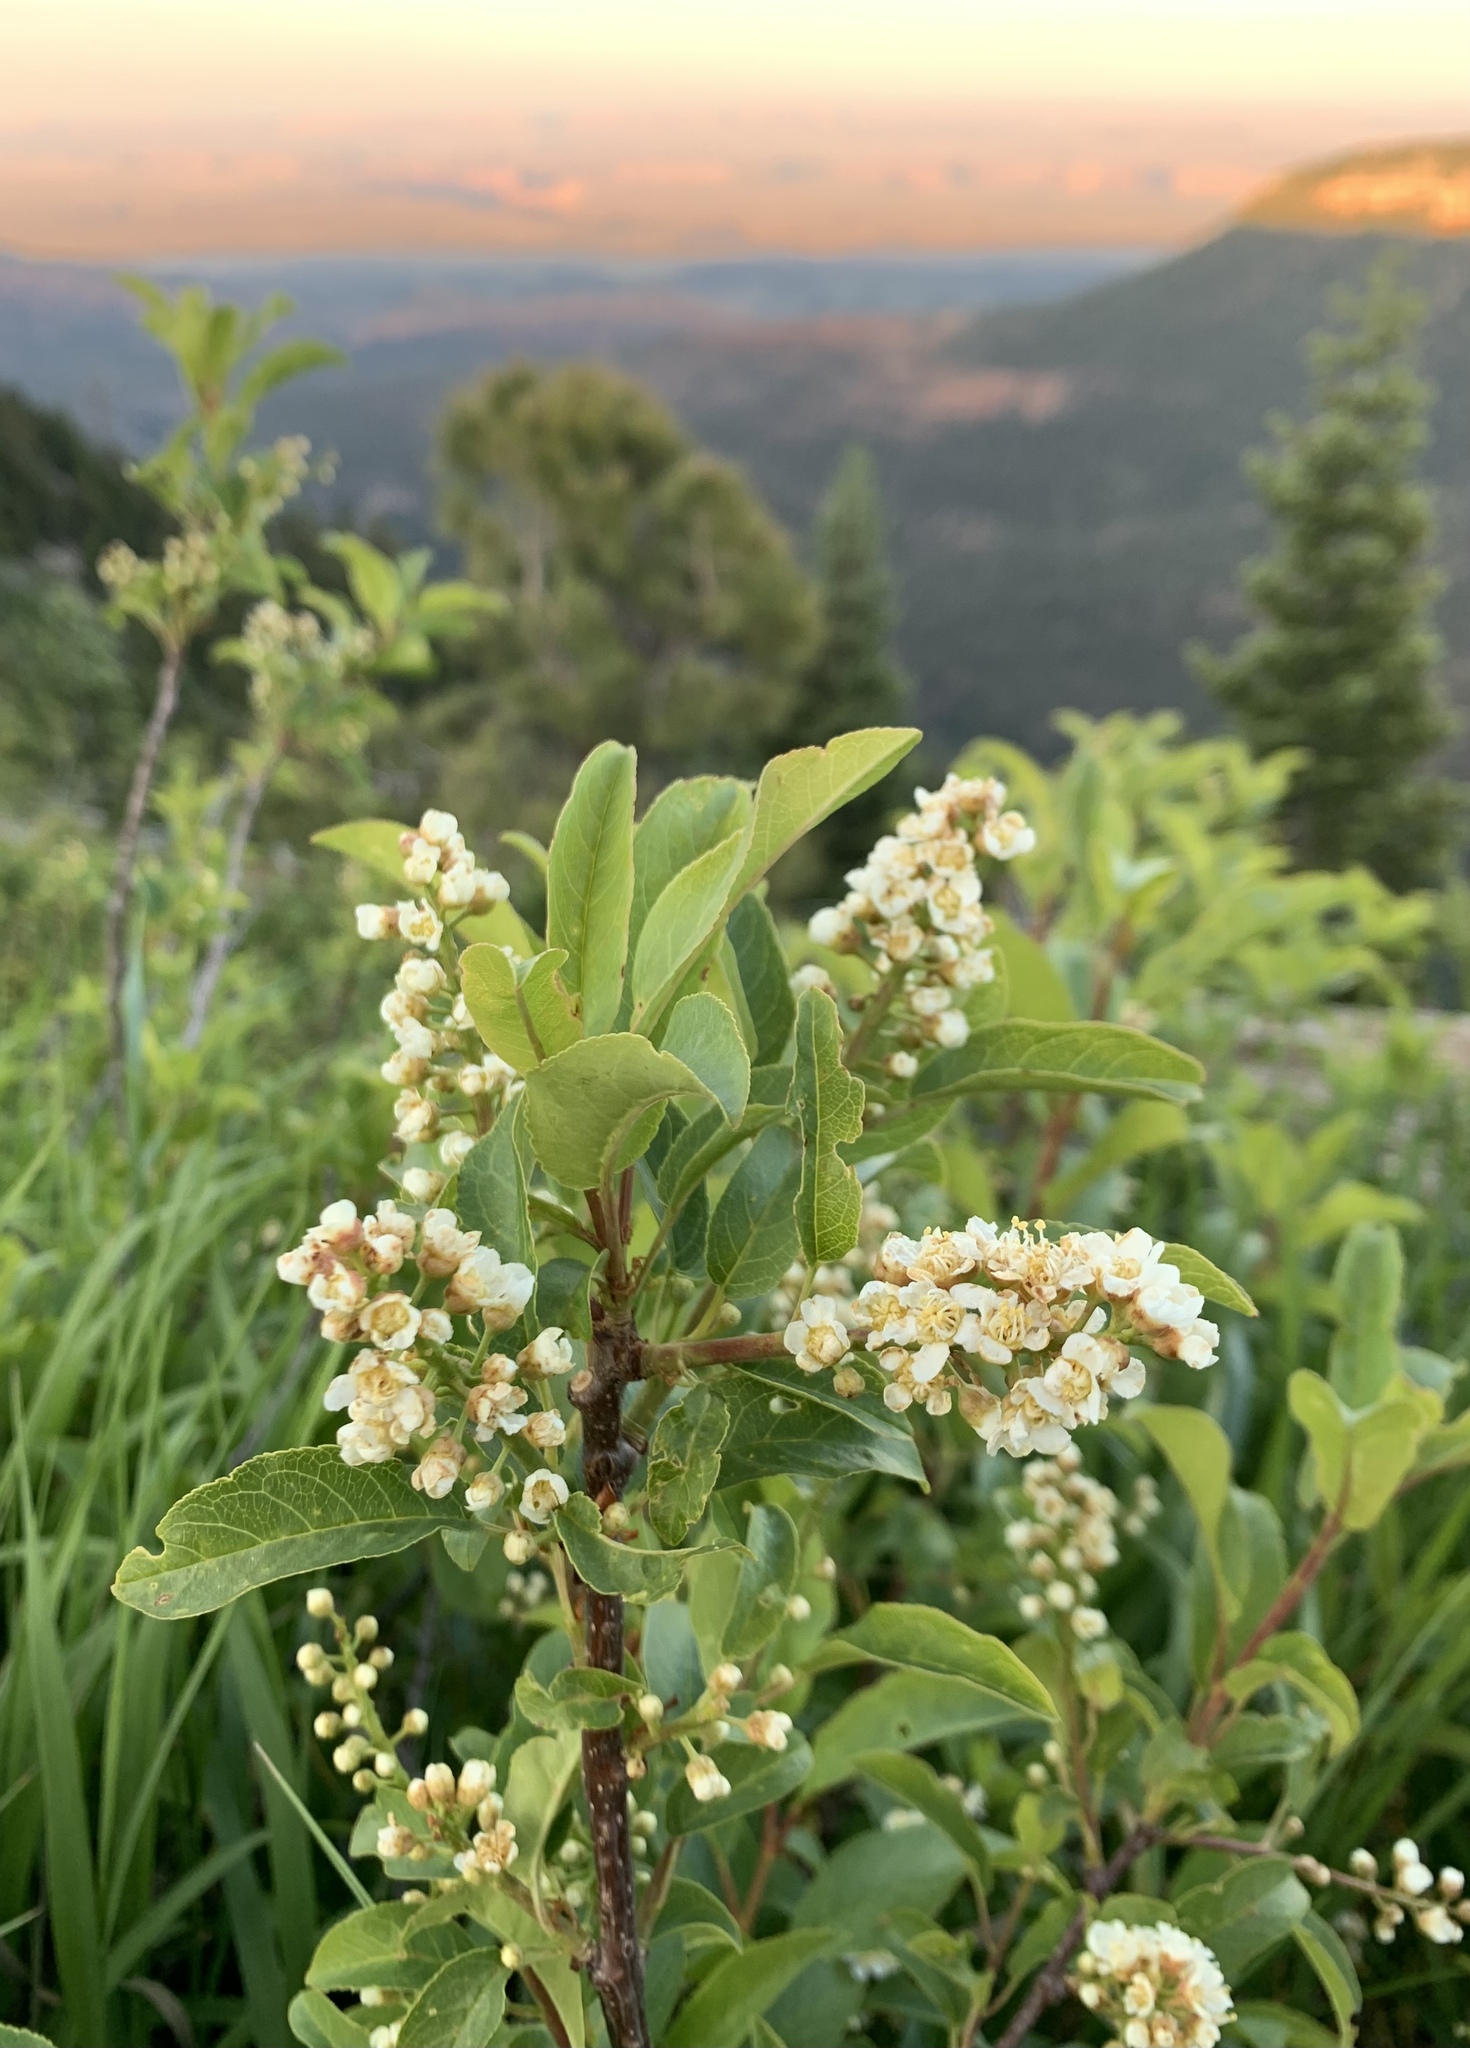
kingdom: Plantae
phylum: Tracheophyta
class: Magnoliopsida
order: Rosales
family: Rosaceae
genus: Prunus
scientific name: Prunus virginiana
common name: Chokecherry
